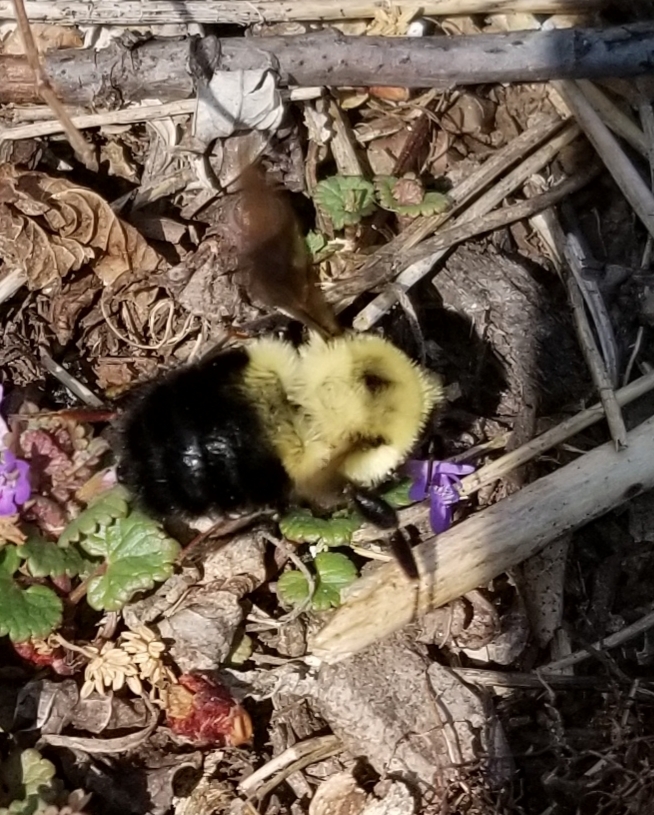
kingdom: Animalia
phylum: Arthropoda
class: Insecta
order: Hymenoptera
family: Apidae
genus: Bombus
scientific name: Bombus bimaculatus
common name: Two-spotted bumble bee
